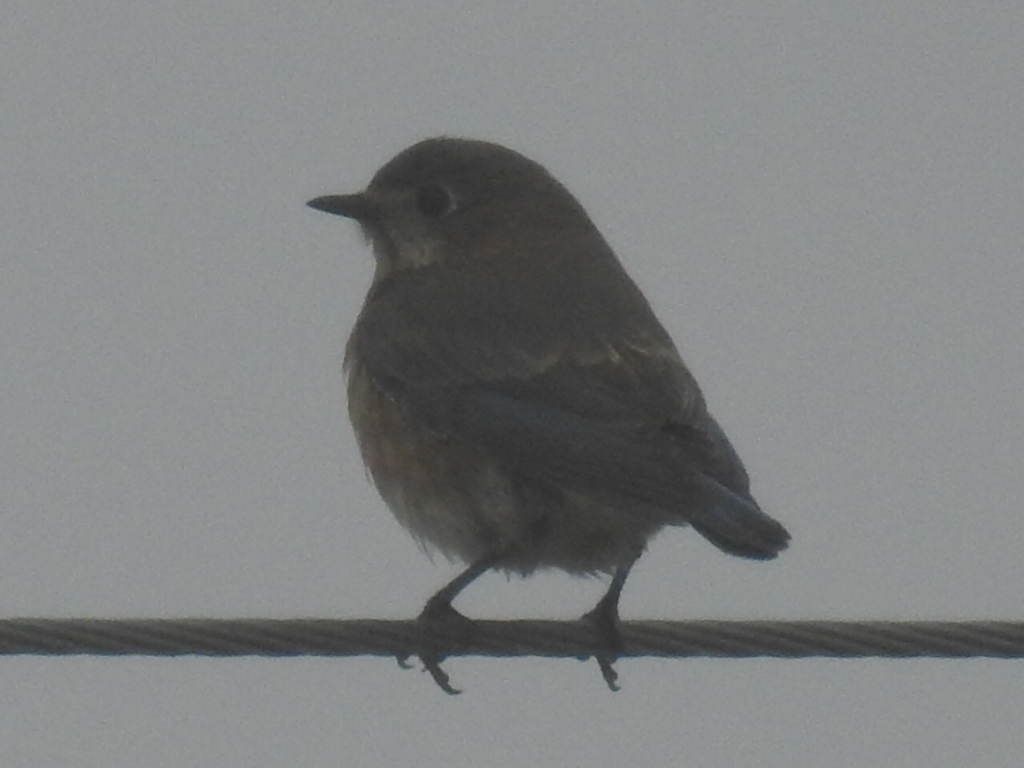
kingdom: Animalia
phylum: Chordata
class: Aves
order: Passeriformes
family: Turdidae
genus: Sialia
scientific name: Sialia sialis
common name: Eastern bluebird
